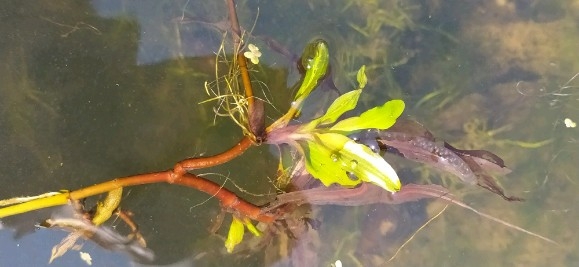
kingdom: Plantae
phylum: Tracheophyta
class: Liliopsida
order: Alismatales
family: Potamogetonaceae
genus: Potamogeton
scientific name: Potamogeton alpinus
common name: Red pondweed
